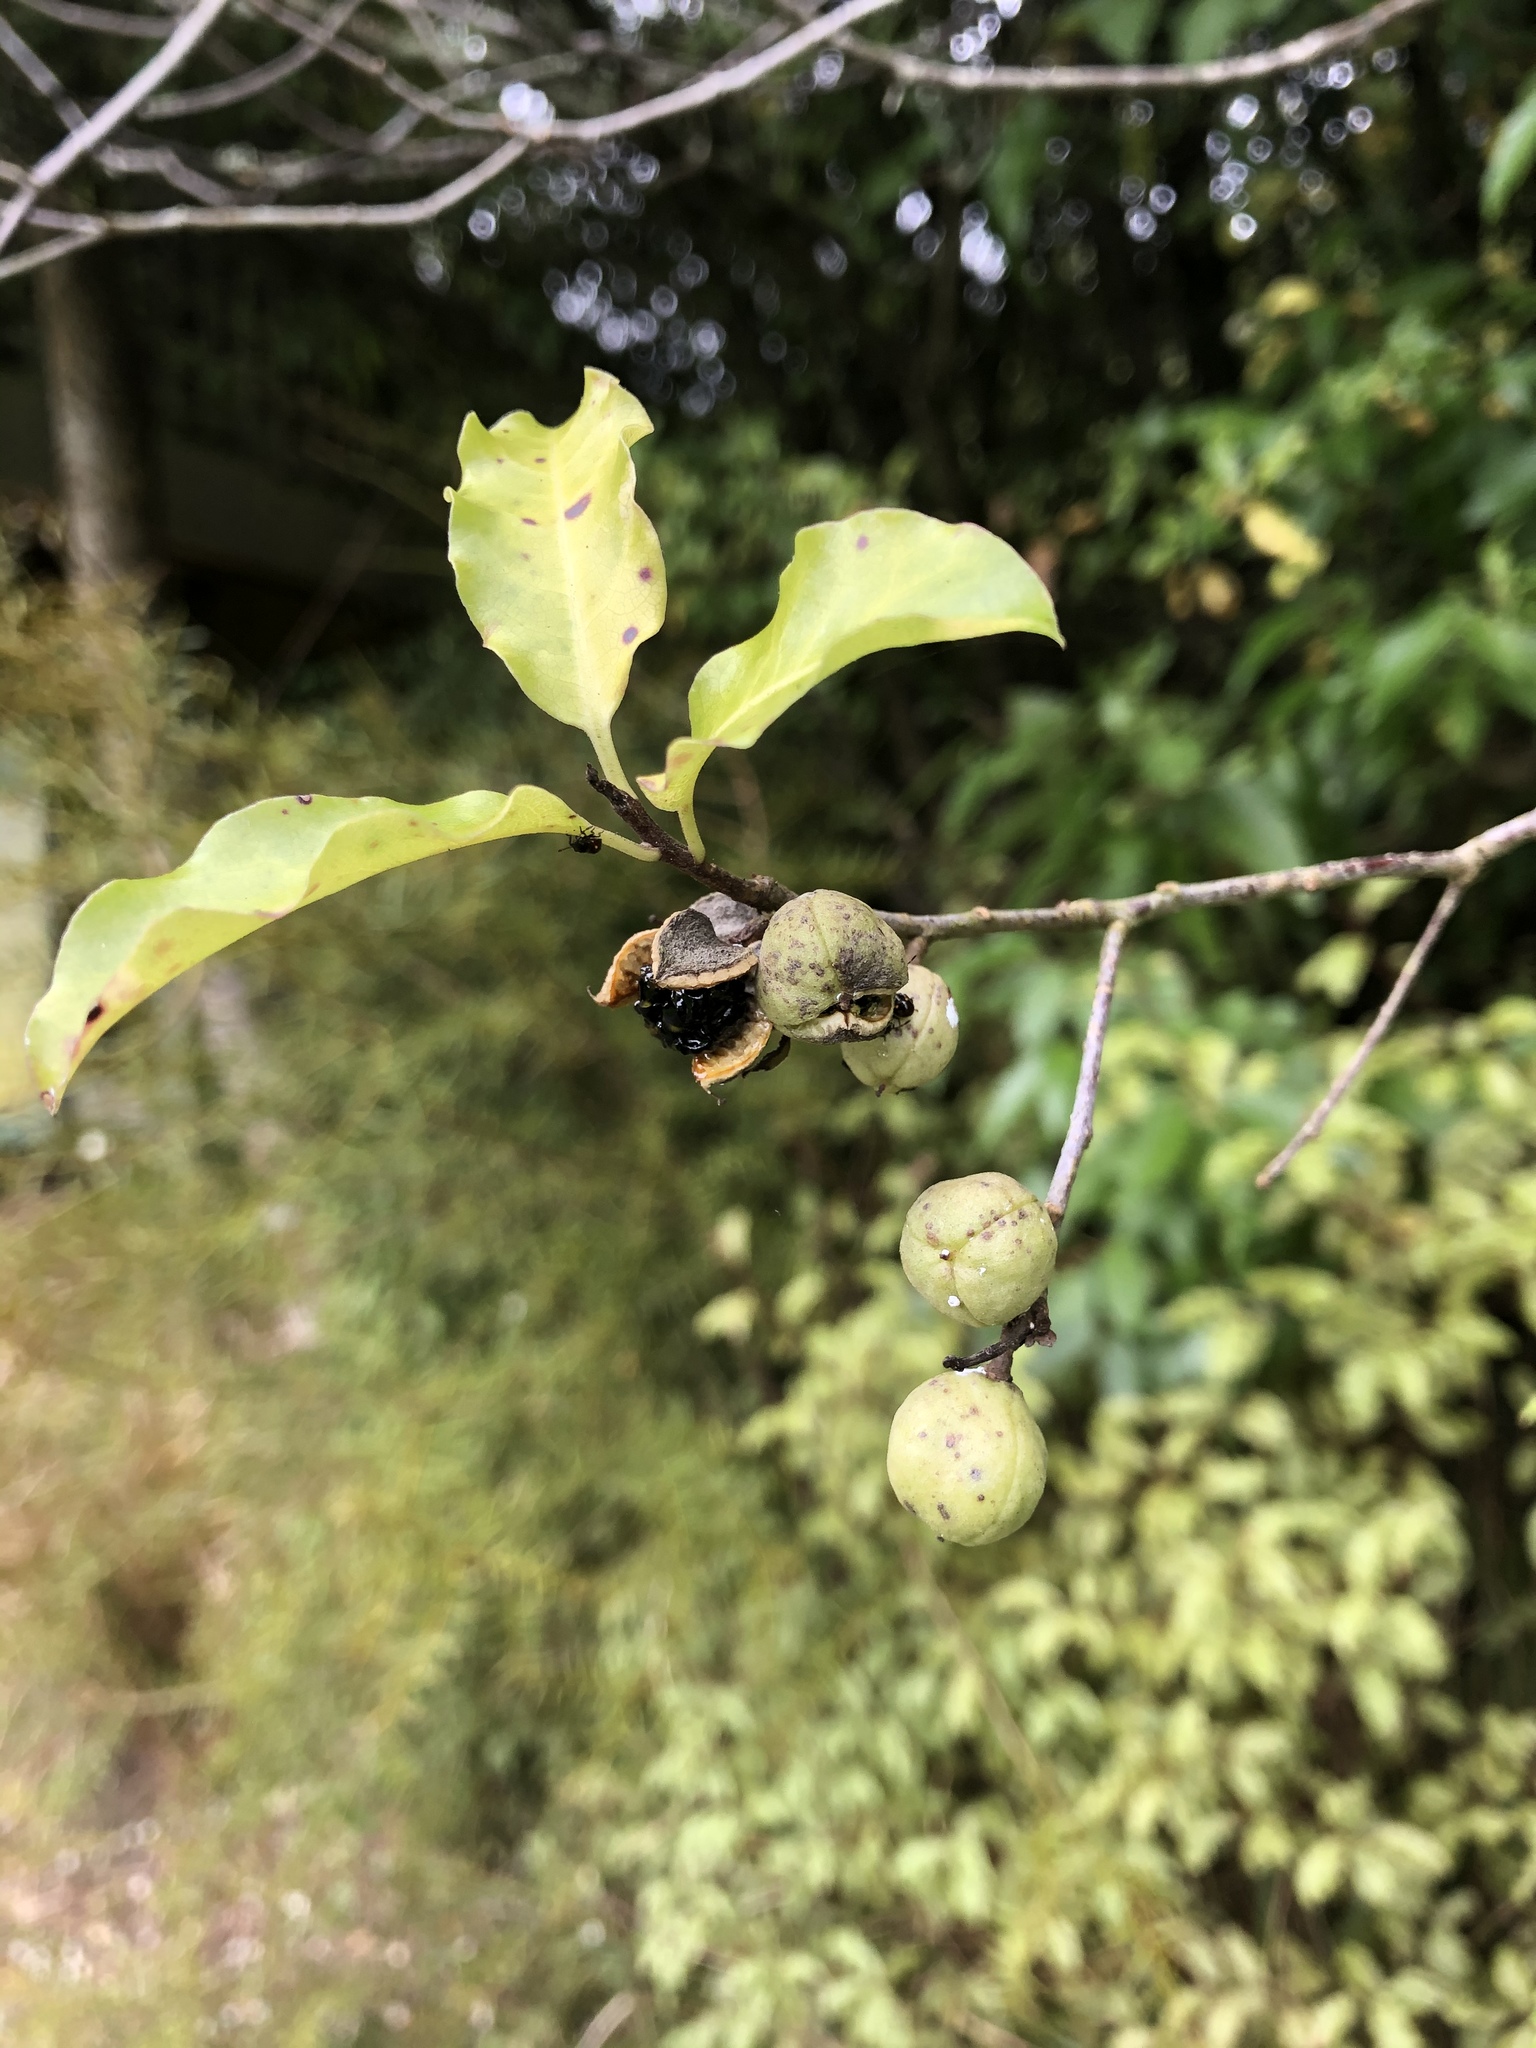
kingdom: Plantae
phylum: Tracheophyta
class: Magnoliopsida
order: Apiales
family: Pittosporaceae
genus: Pittosporum
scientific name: Pittosporum tenuifolium
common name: Kohuhu
